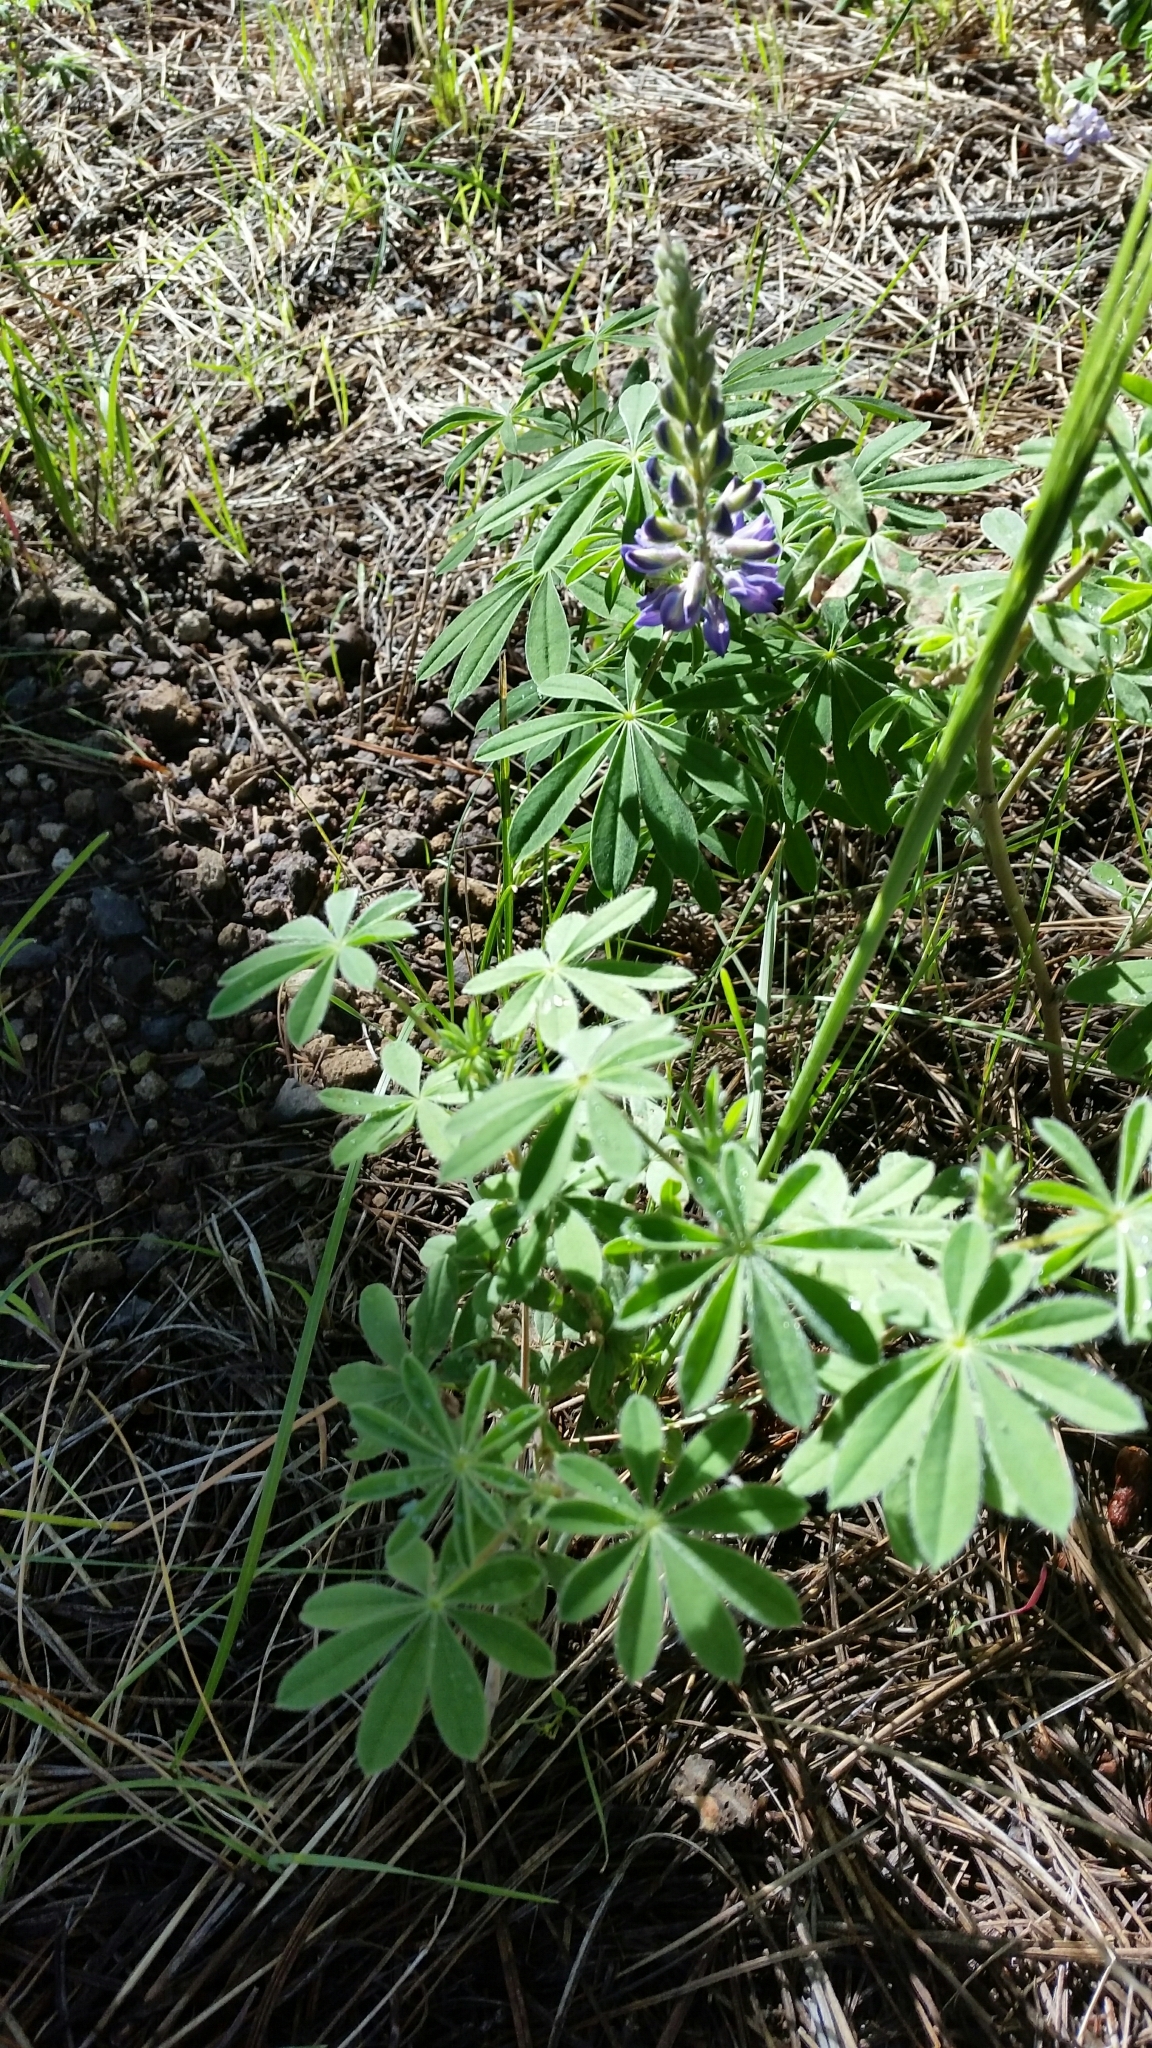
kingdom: Plantae
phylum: Tracheophyta
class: Magnoliopsida
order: Fabales
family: Fabaceae
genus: Lupinus
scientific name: Lupinus argenteus
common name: Silvery lupine
